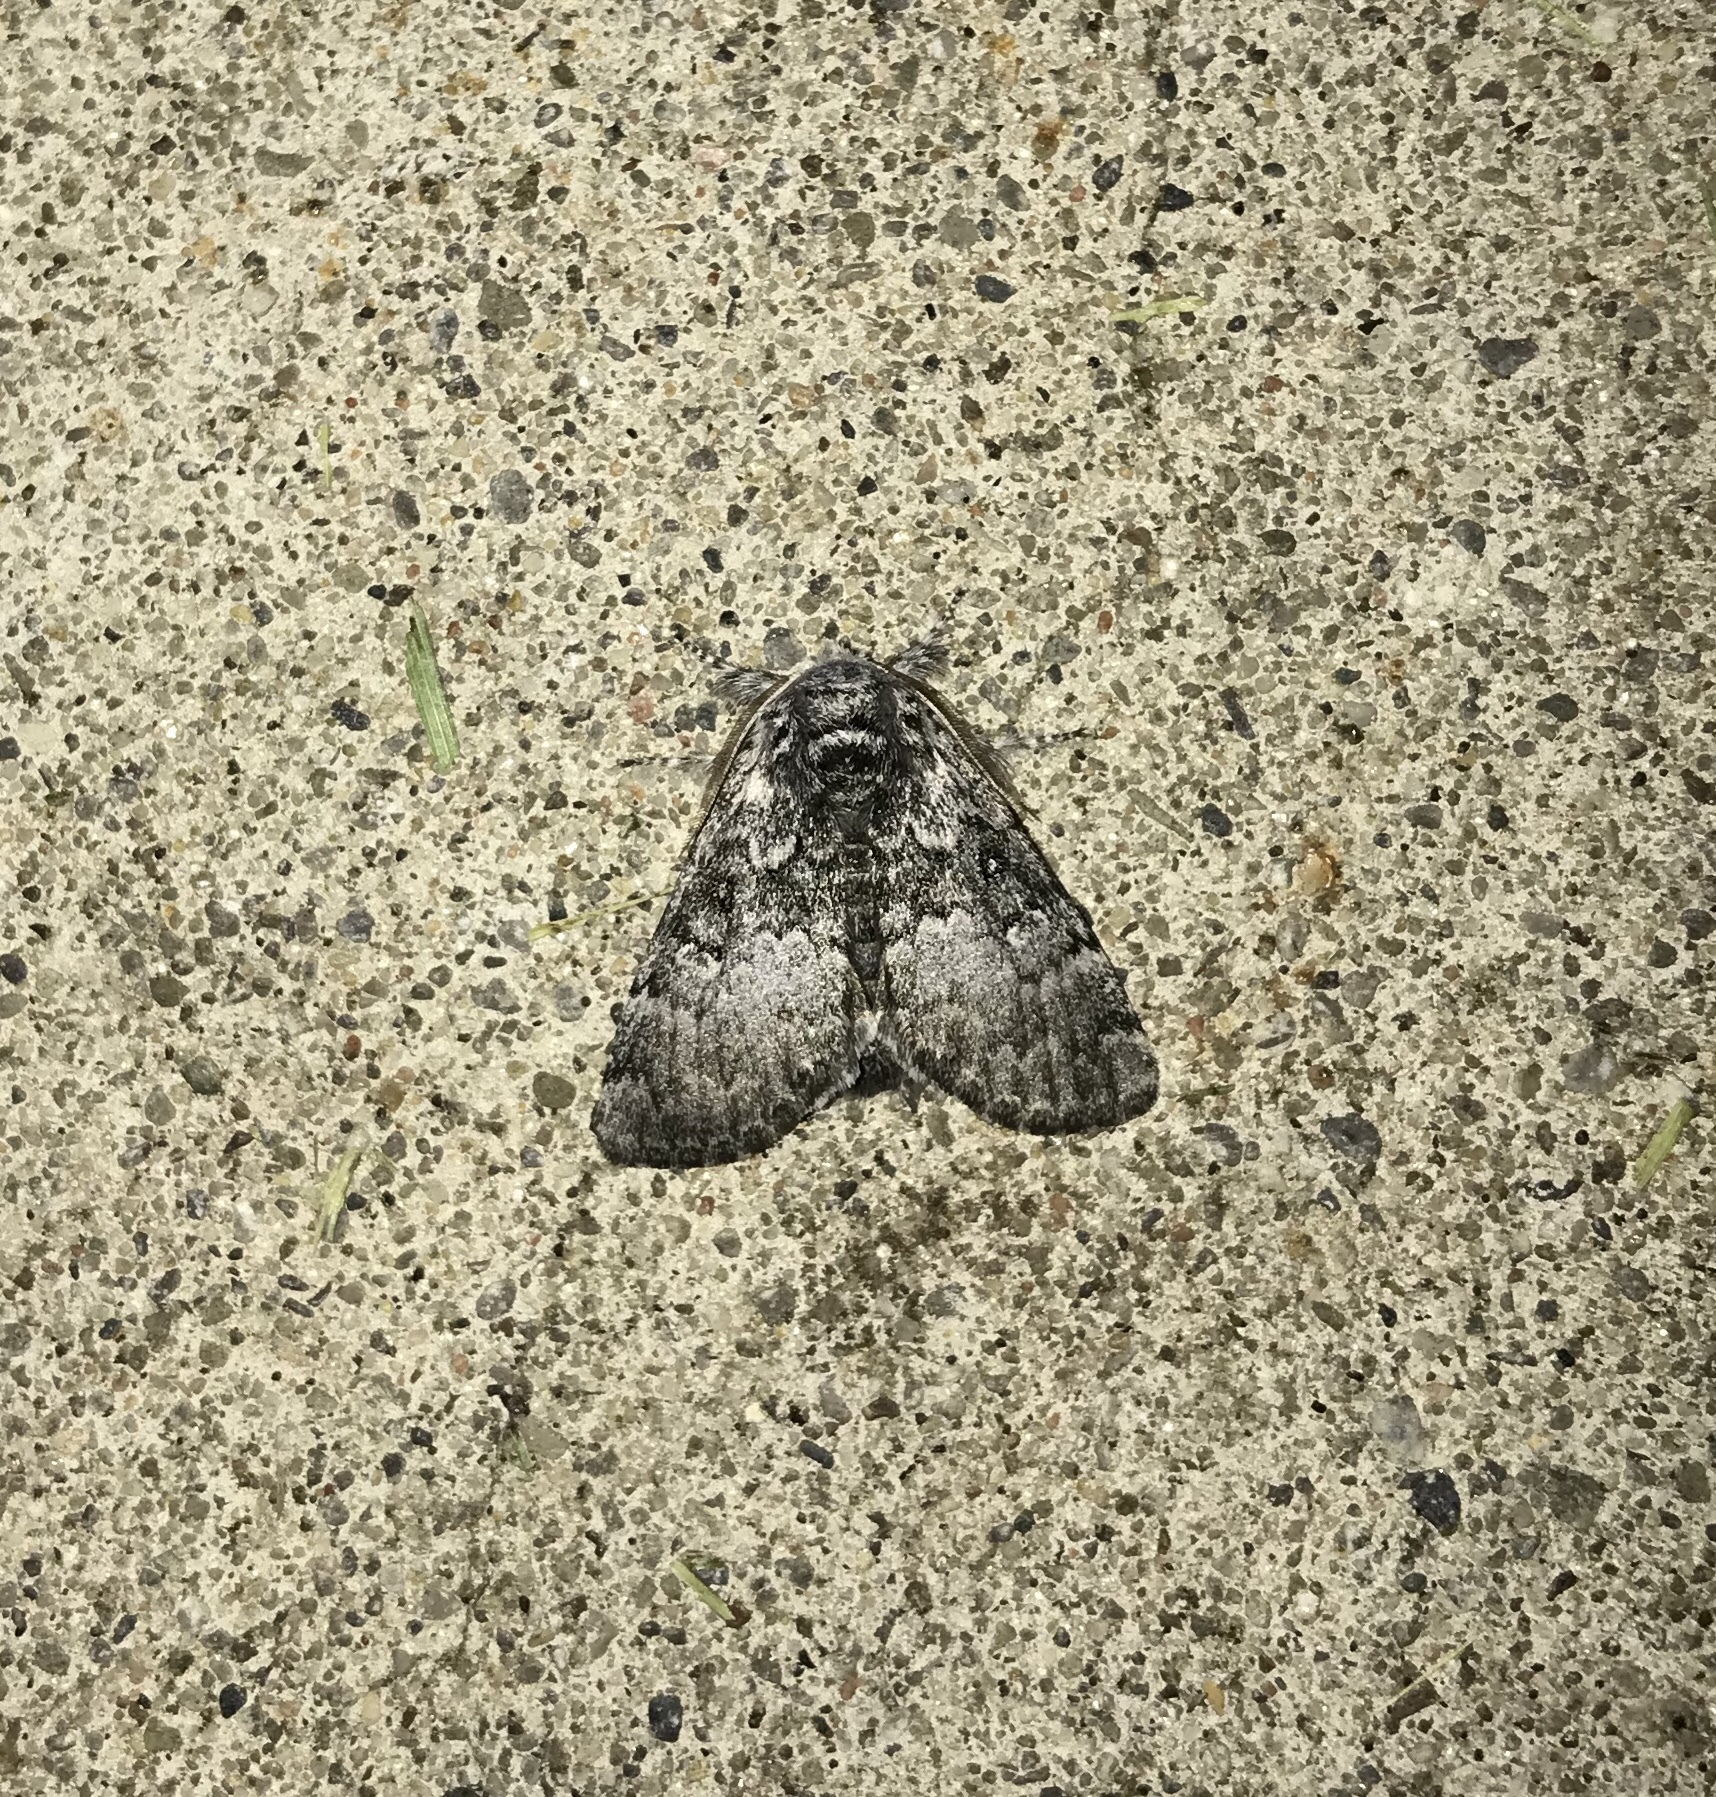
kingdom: Animalia
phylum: Arthropoda
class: Insecta
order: Lepidoptera
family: Noctuidae
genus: Colocasia
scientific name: Colocasia propinquilinea
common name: Close-banded demas
